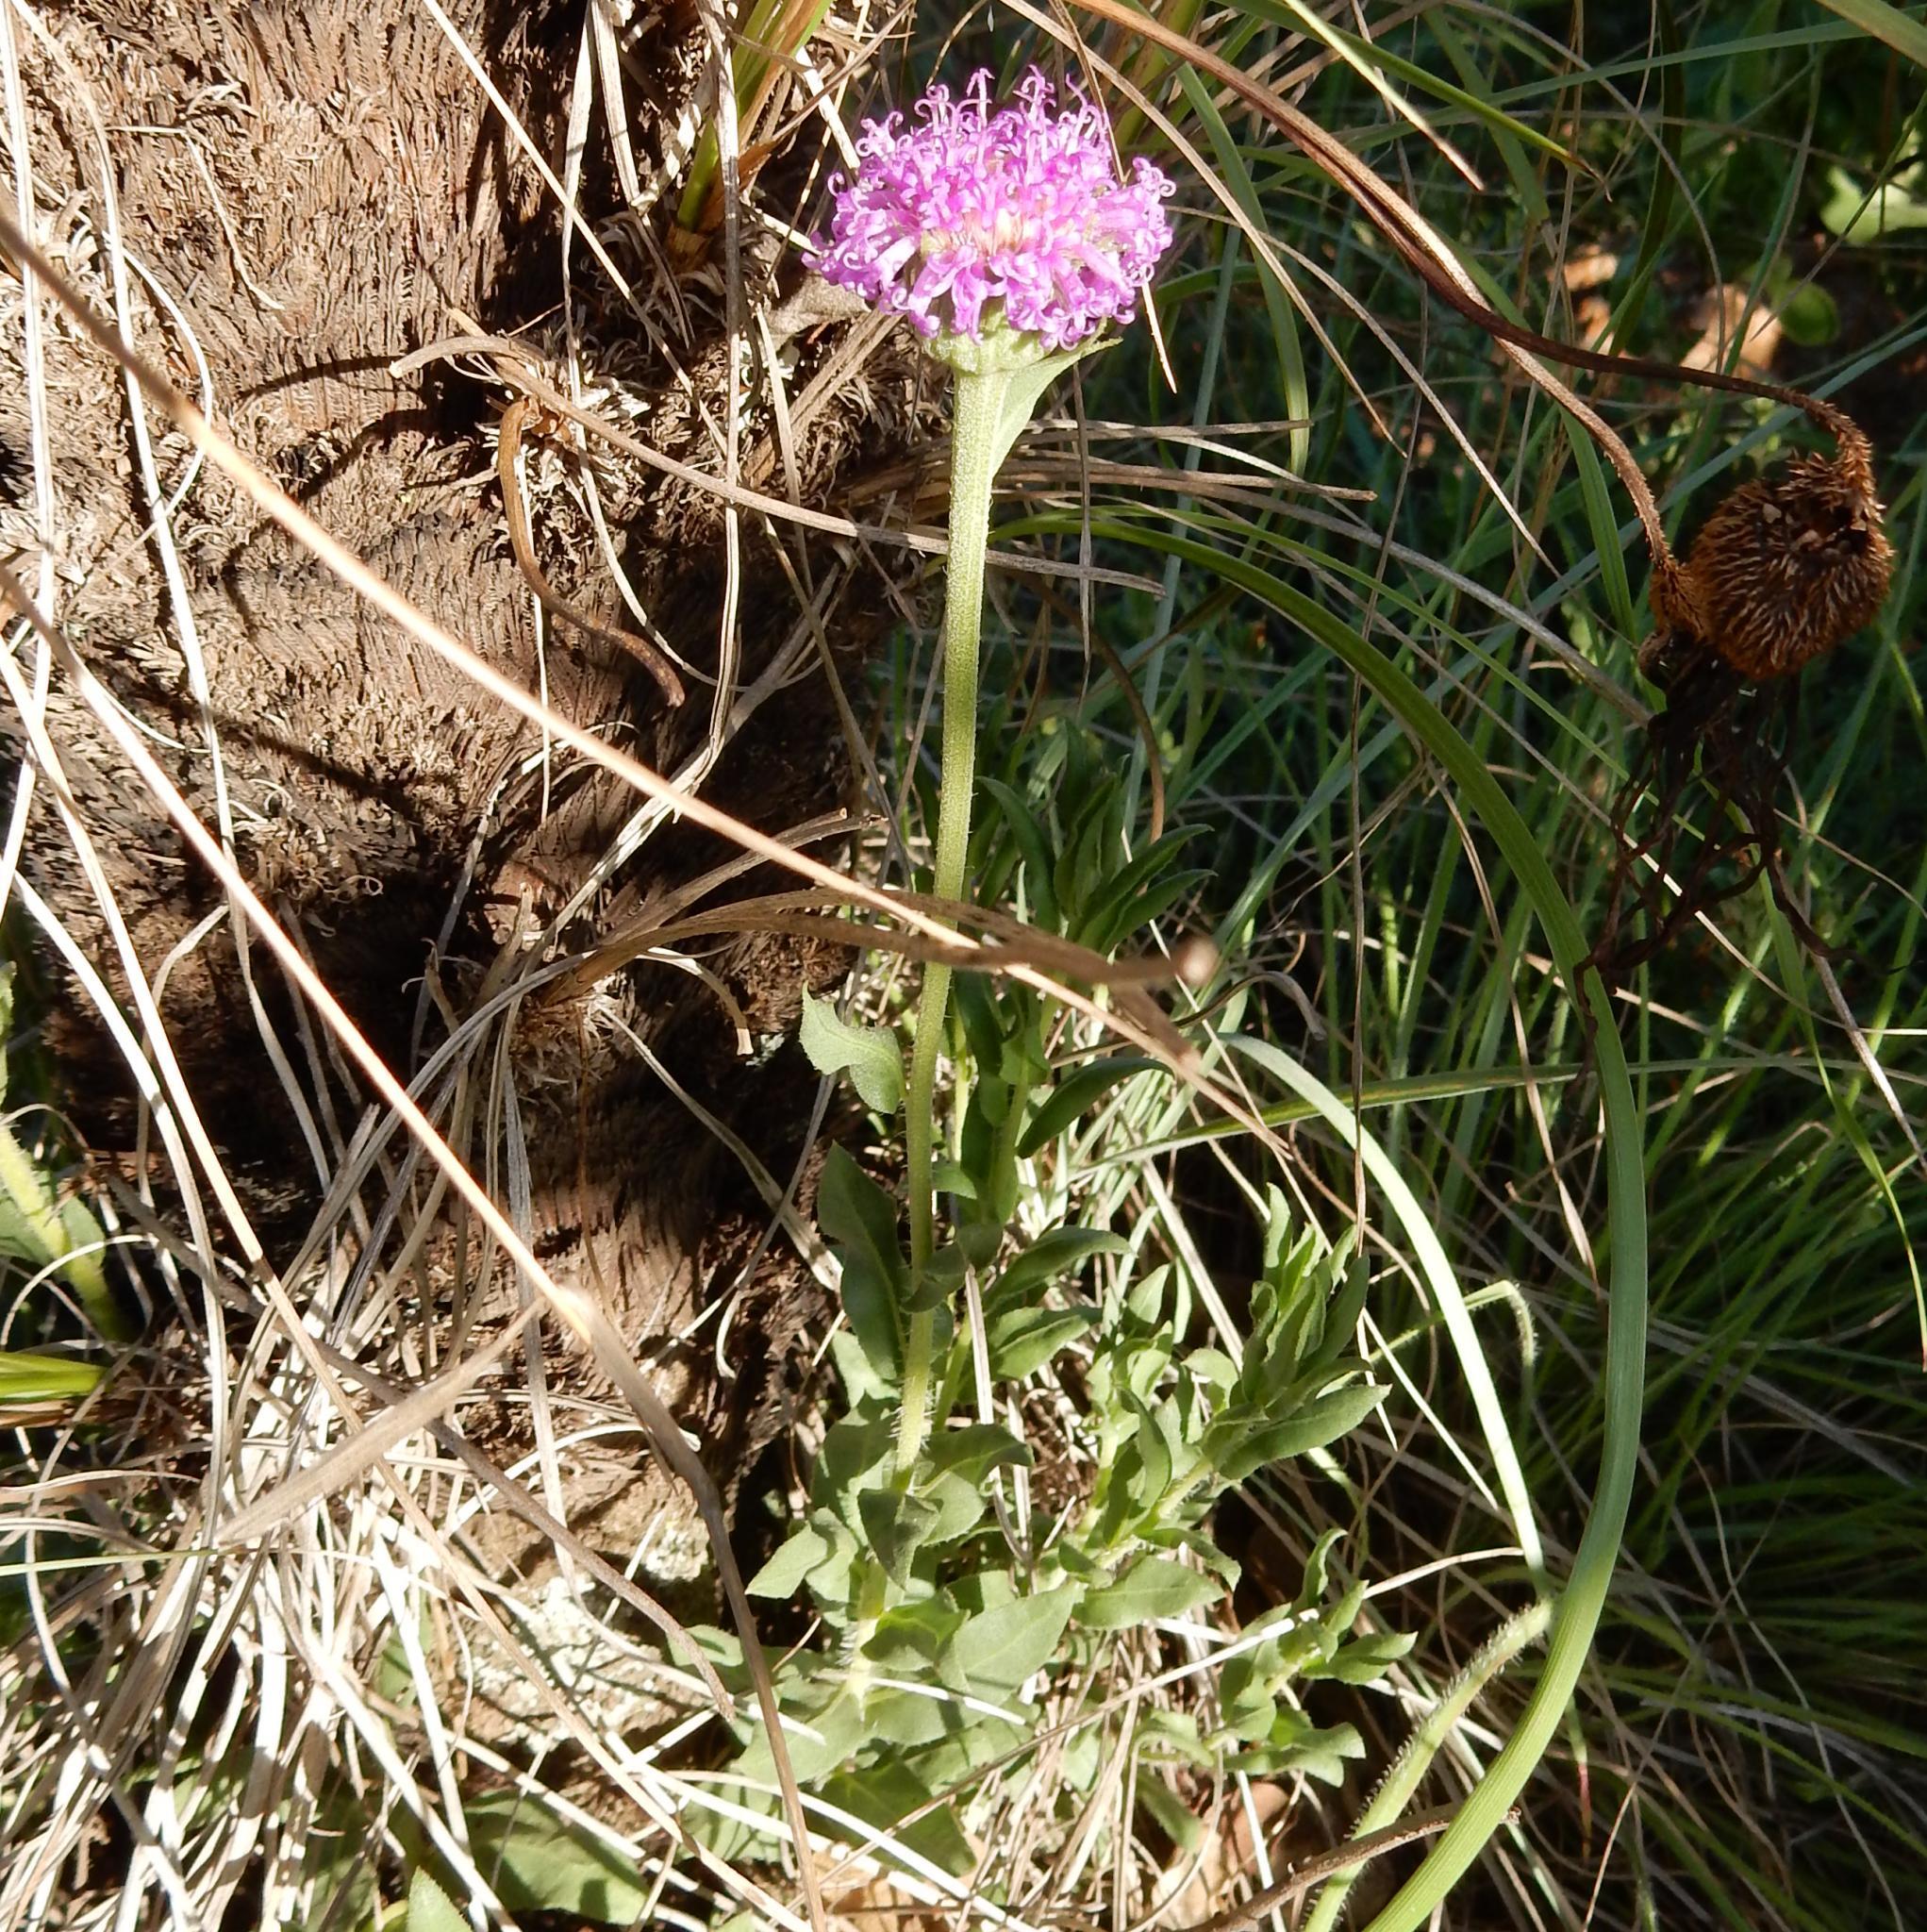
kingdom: Plantae
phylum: Tracheophyta
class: Magnoliopsida
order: Asterales
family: Asteraceae
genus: Pseudopegolettia
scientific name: Pseudopegolettia tenella
